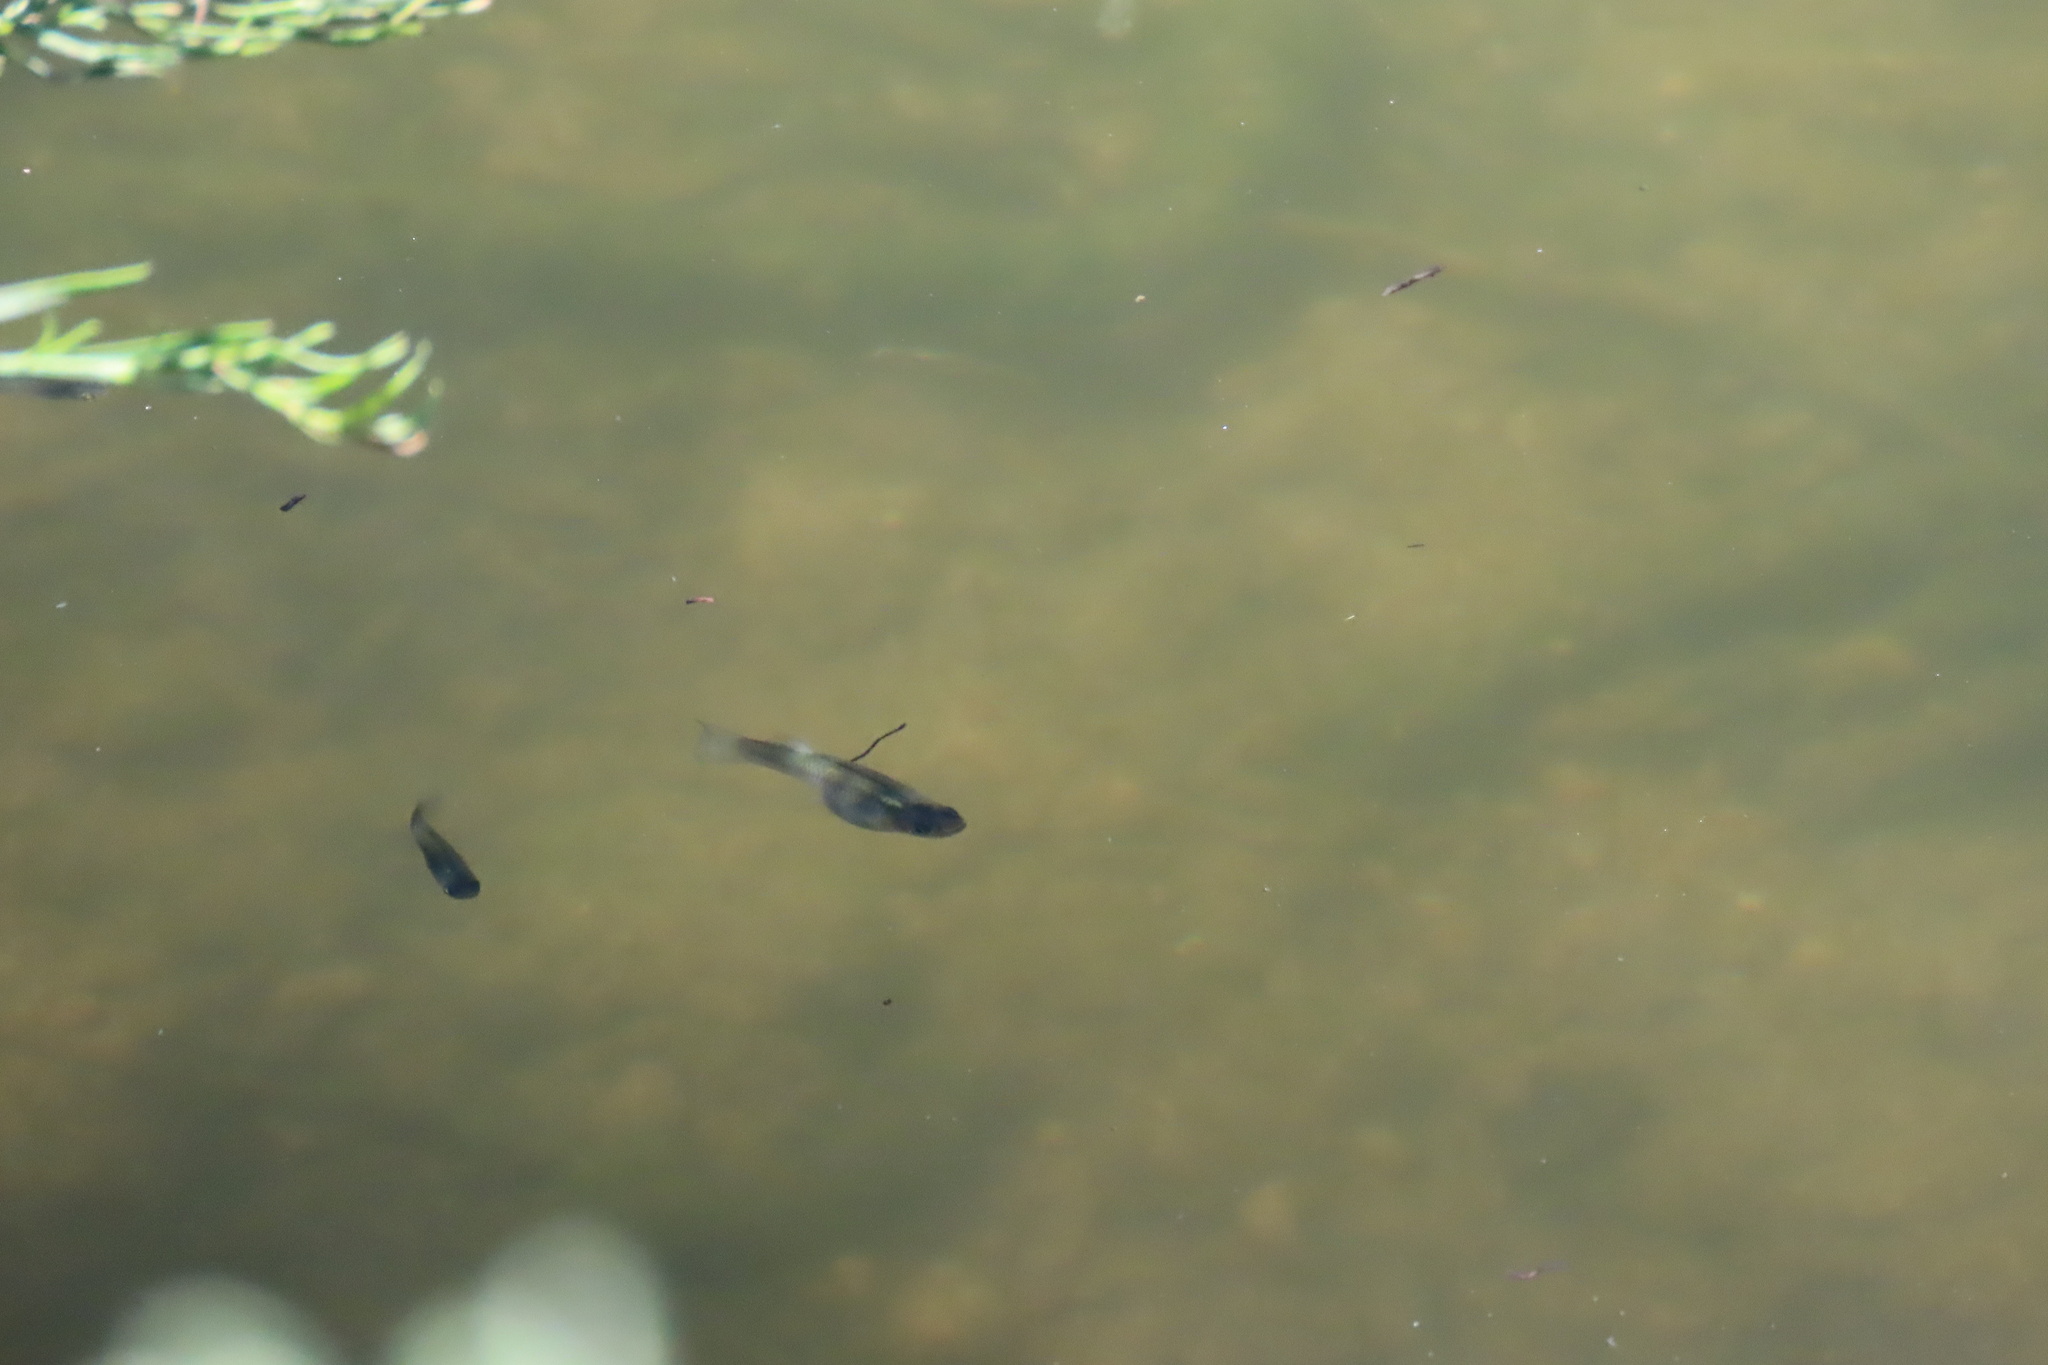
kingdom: Animalia
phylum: Chordata
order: Cyprinodontiformes
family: Poeciliidae
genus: Gambusia
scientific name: Gambusia affinis
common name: Mosquitofish
